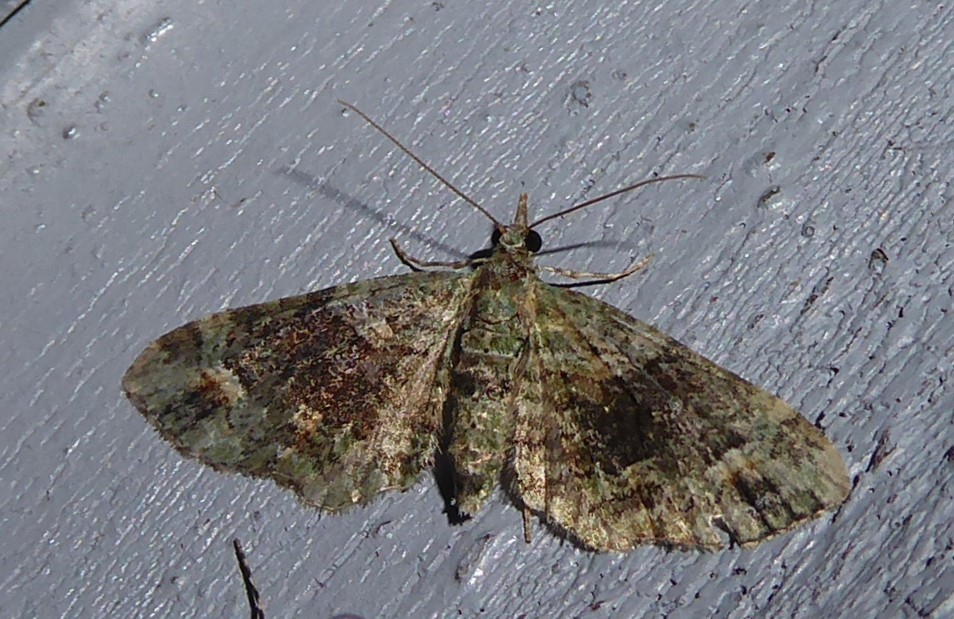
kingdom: Animalia
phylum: Arthropoda
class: Insecta
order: Lepidoptera
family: Geometridae
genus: Idaea
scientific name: Idaea mutanda
